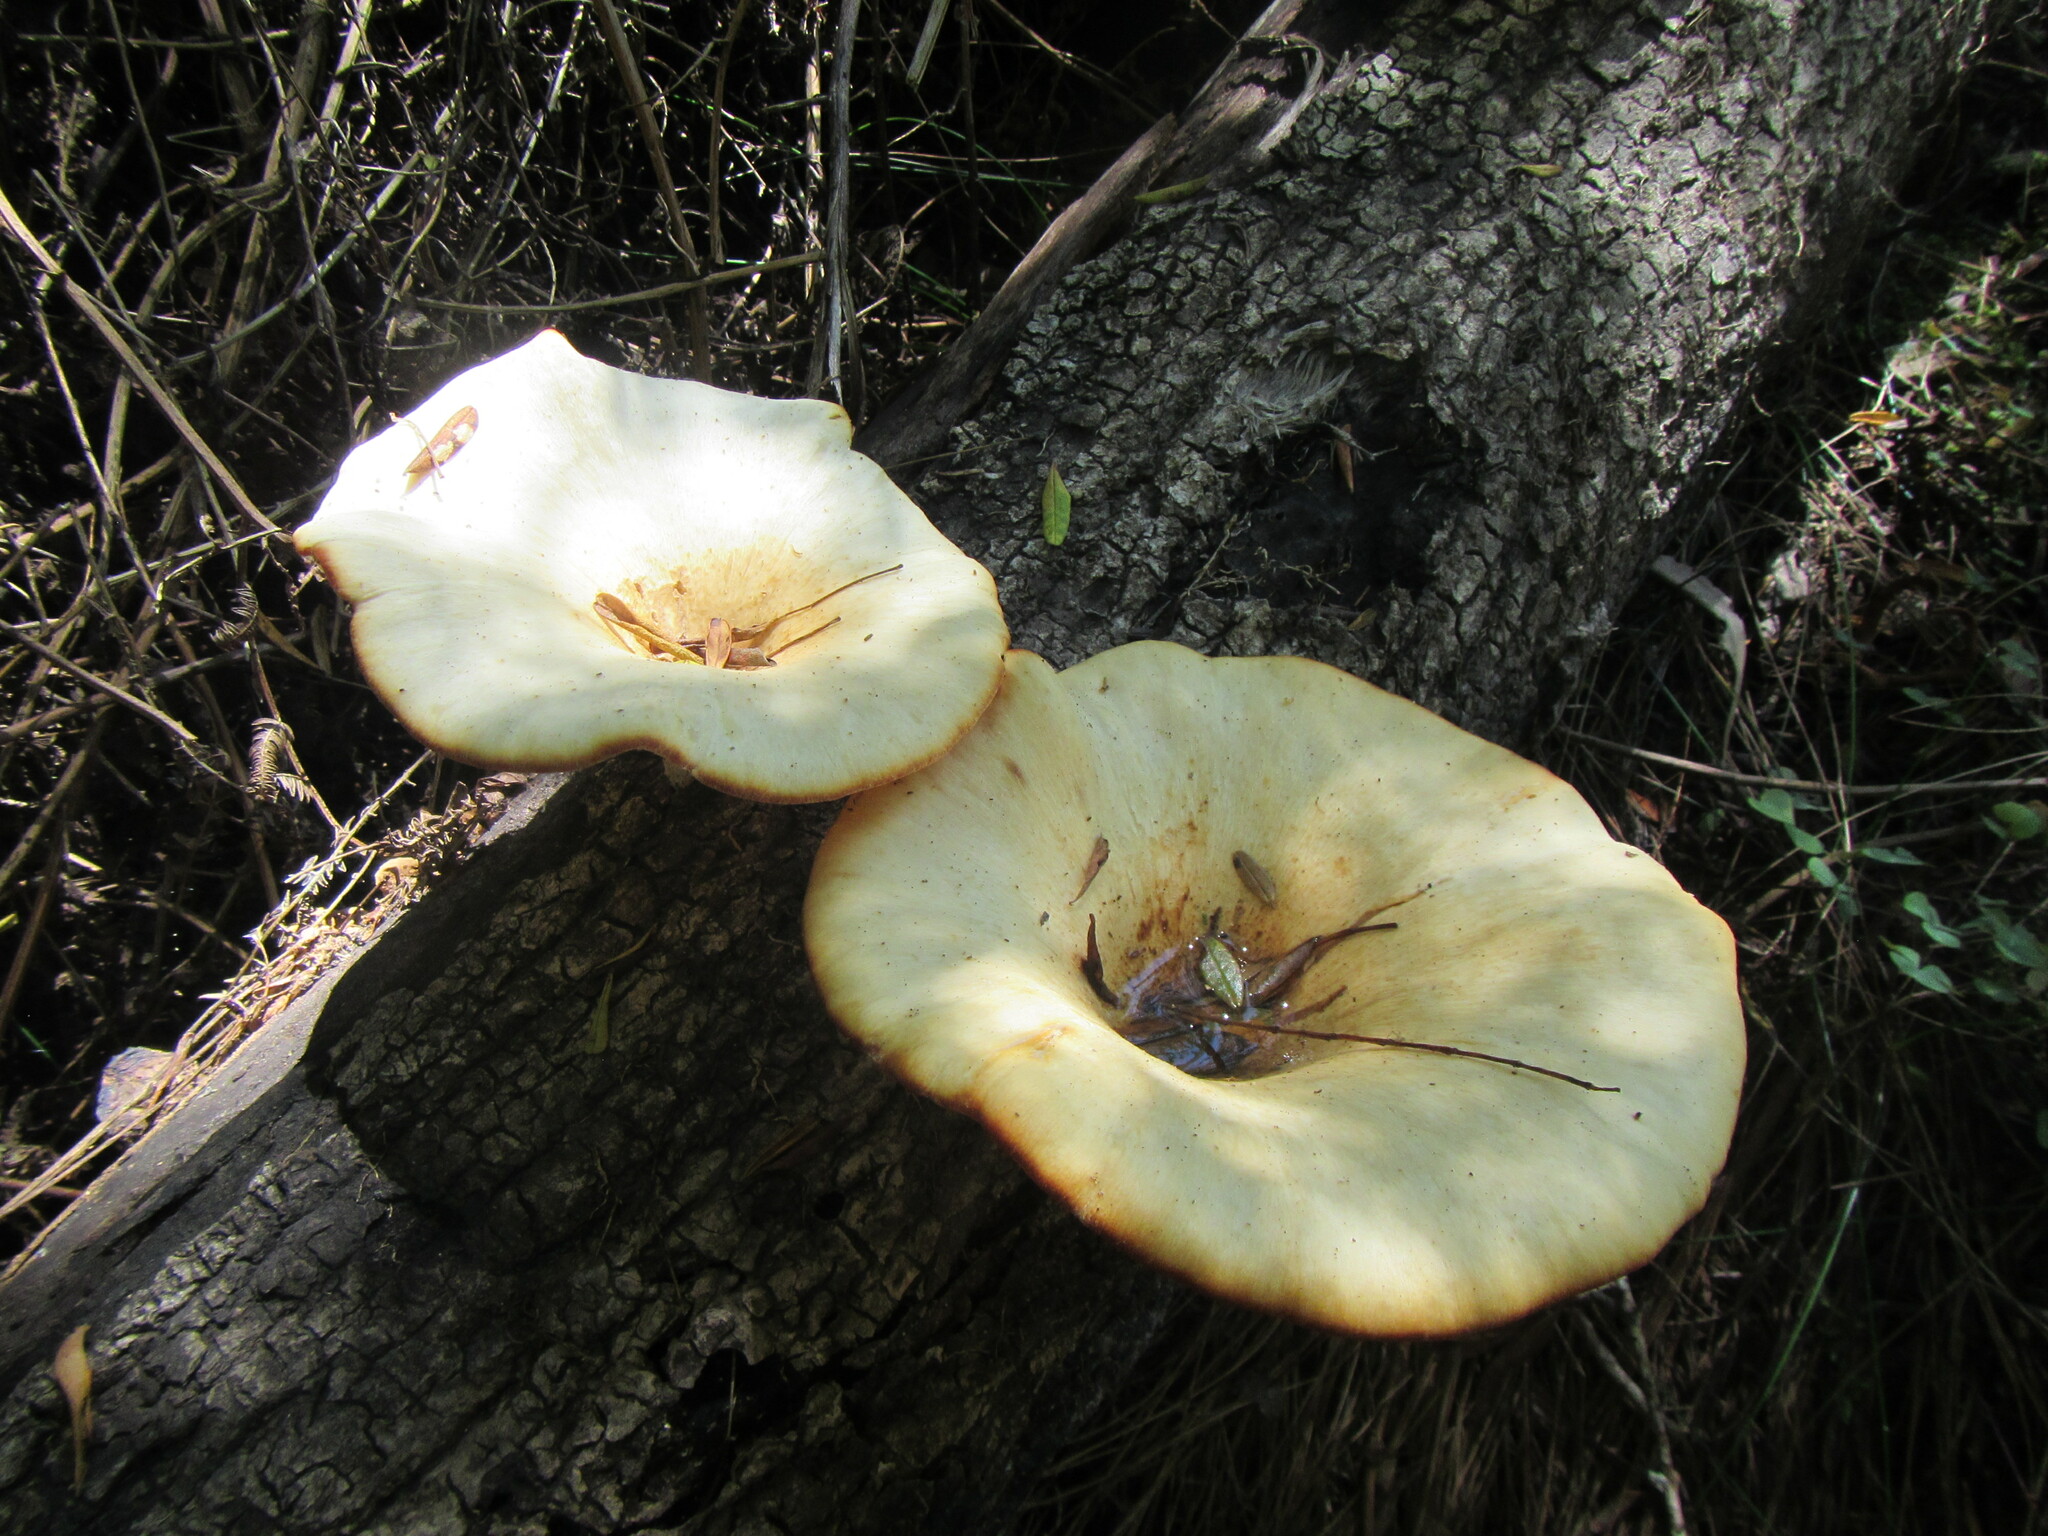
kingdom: Fungi
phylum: Basidiomycota
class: Agaricomycetes
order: Polyporales
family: Polyporaceae
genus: Lentinus
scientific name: Lentinus sajor-caju
